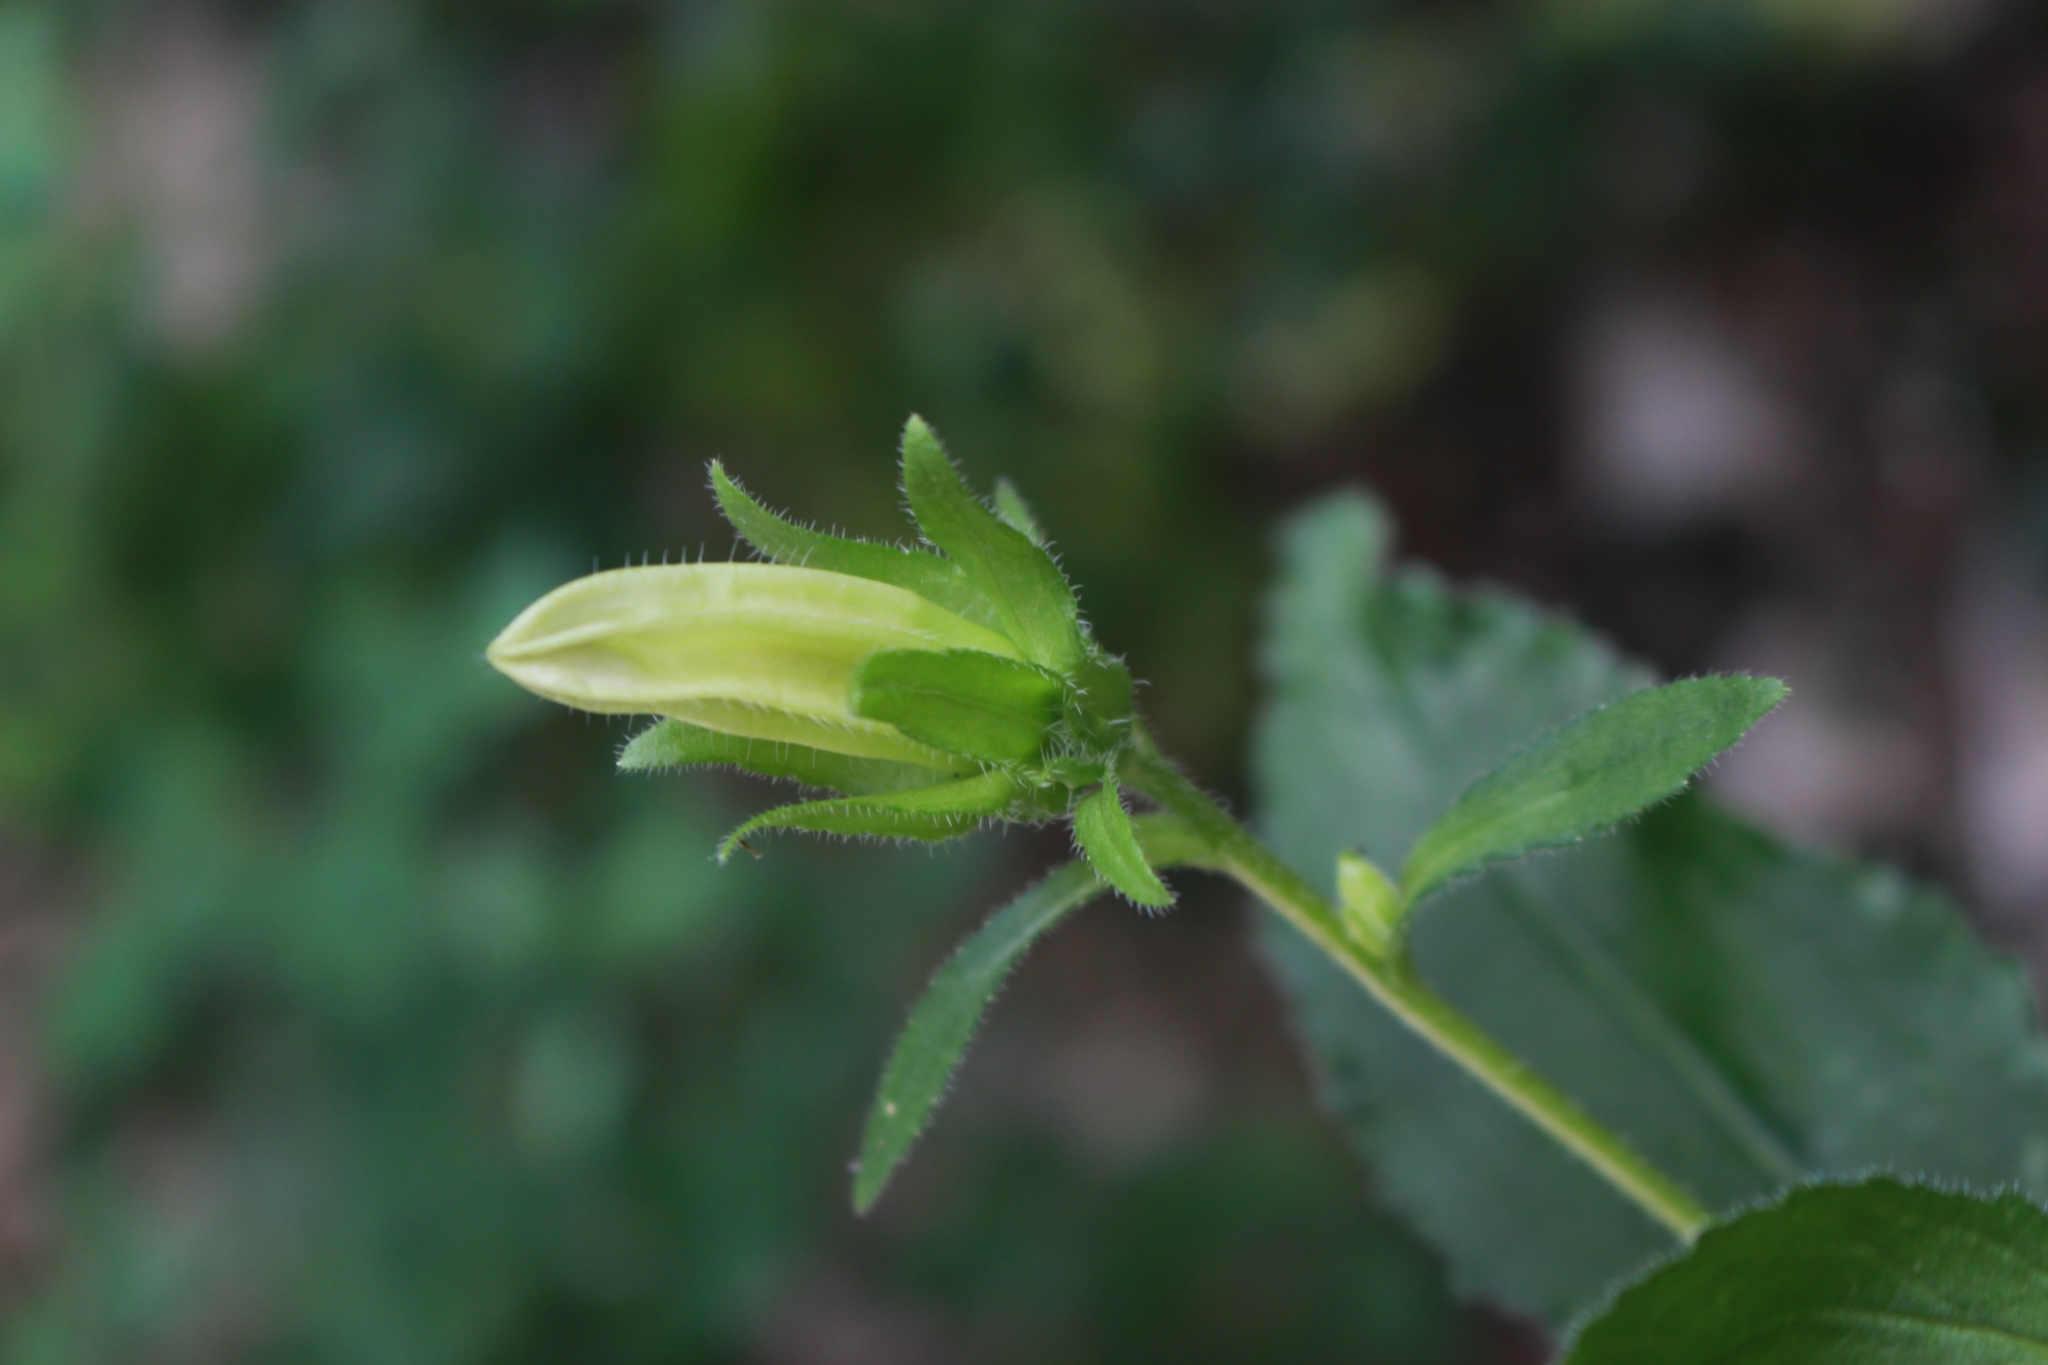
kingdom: Plantae
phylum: Tracheophyta
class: Magnoliopsida
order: Asterales
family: Campanulaceae
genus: Campanula
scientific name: Campanula medium
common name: Canterbury bells
